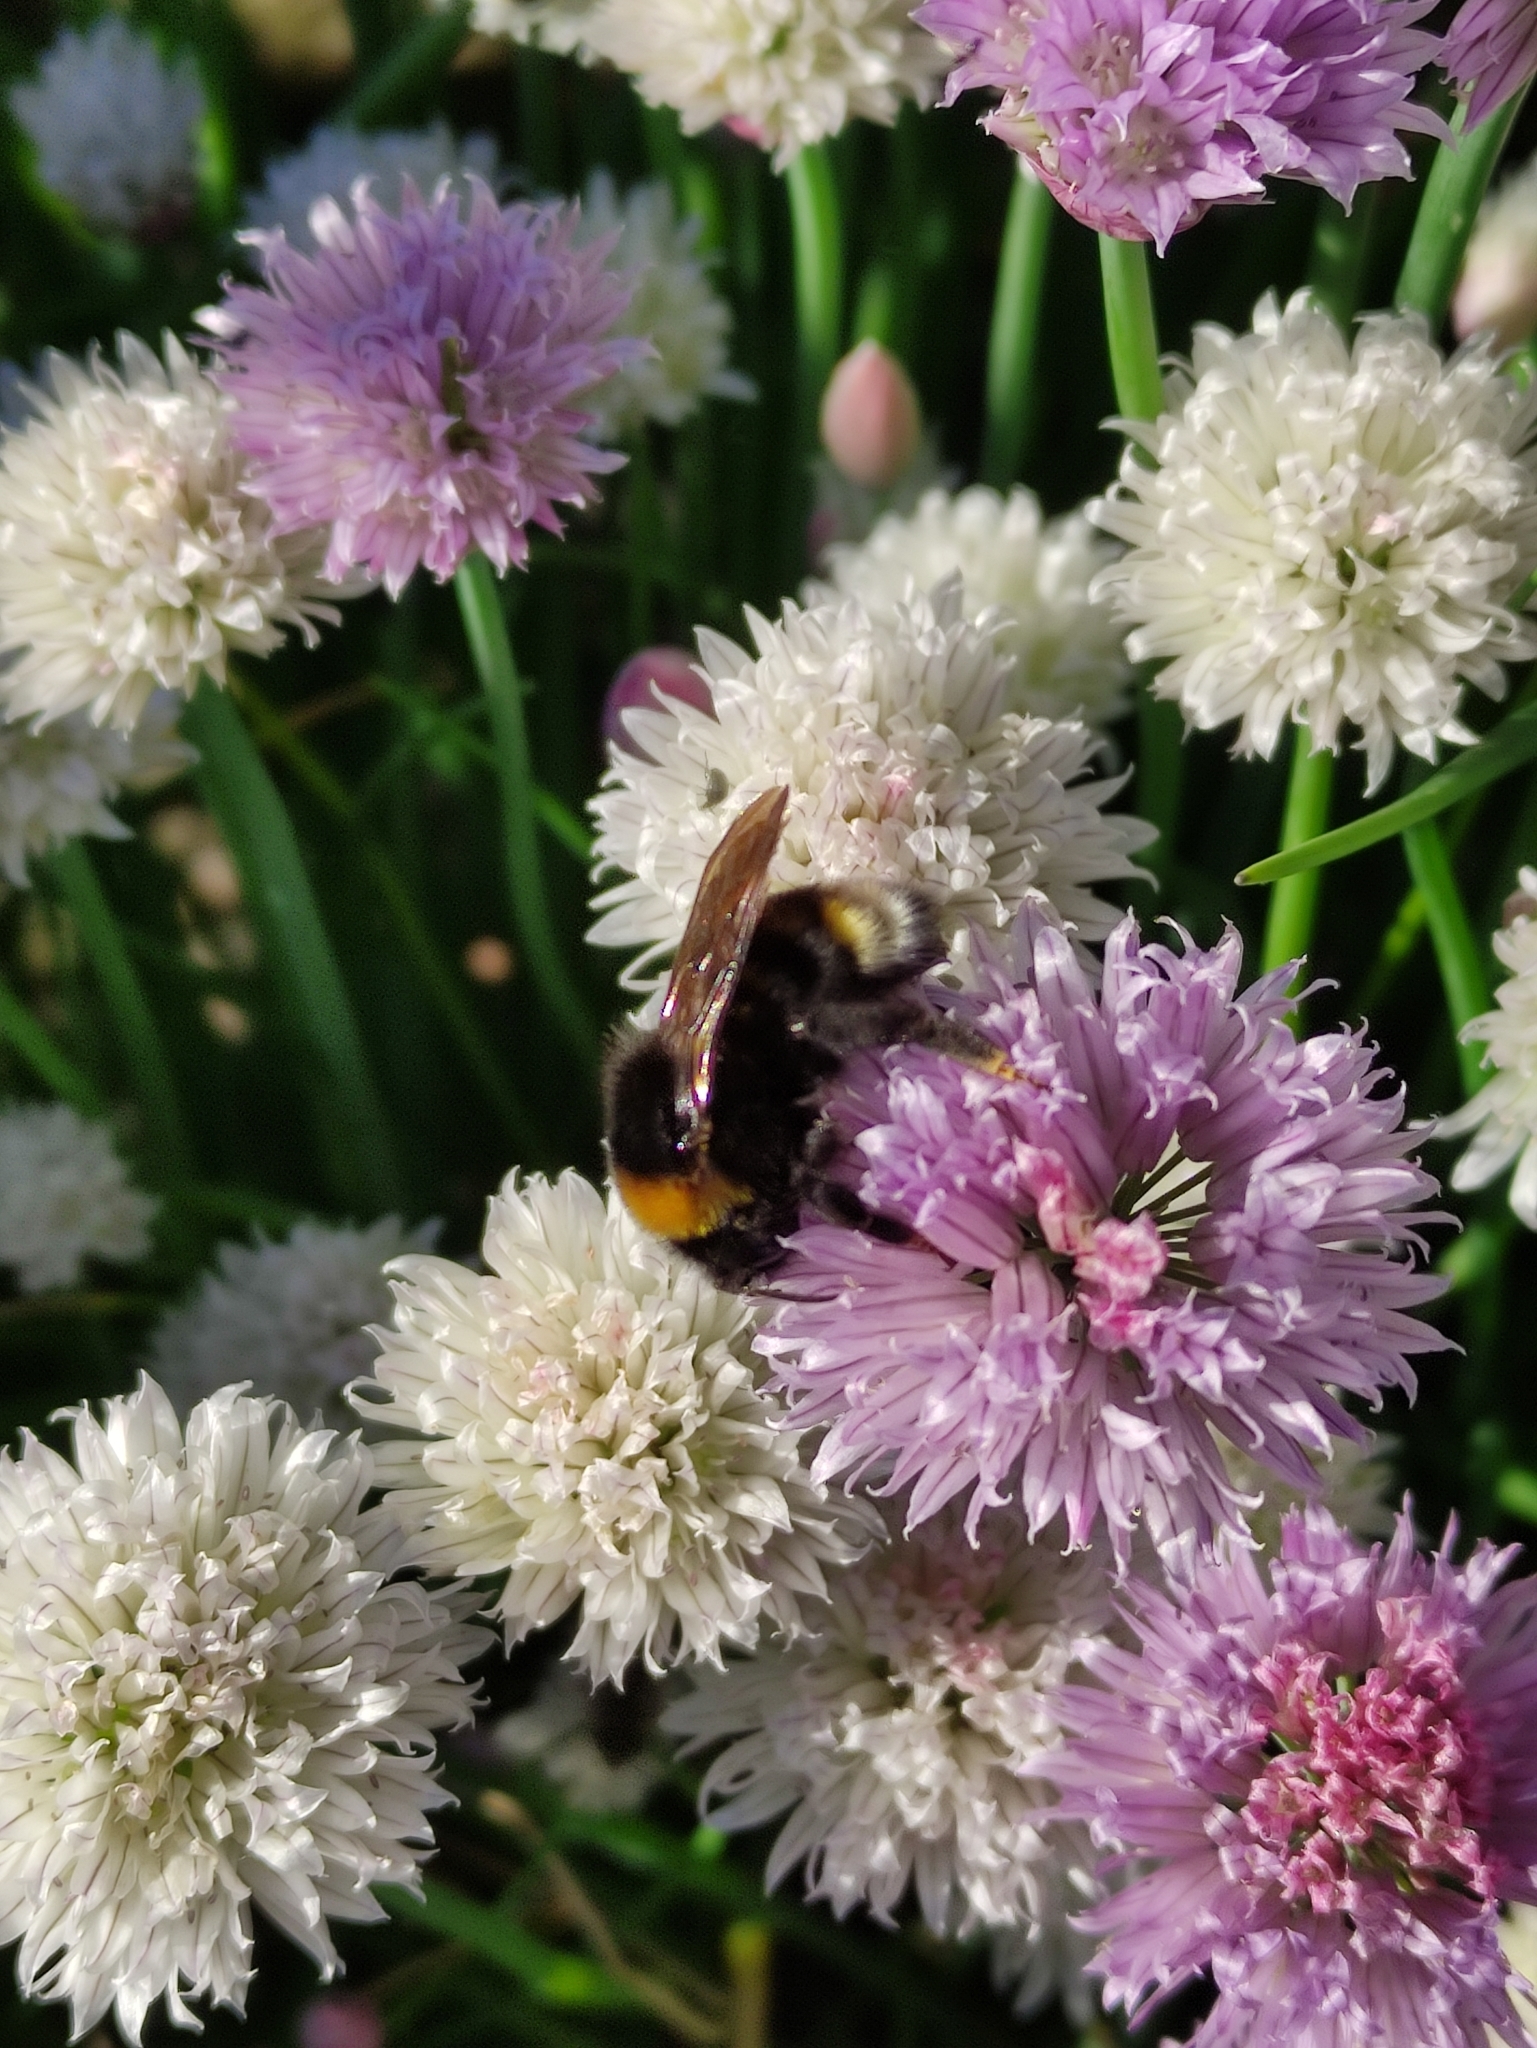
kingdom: Animalia
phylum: Arthropoda
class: Insecta
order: Hymenoptera
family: Apidae
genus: Bombus
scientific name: Bombus vestalis
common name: Vestal cuckoo bee
